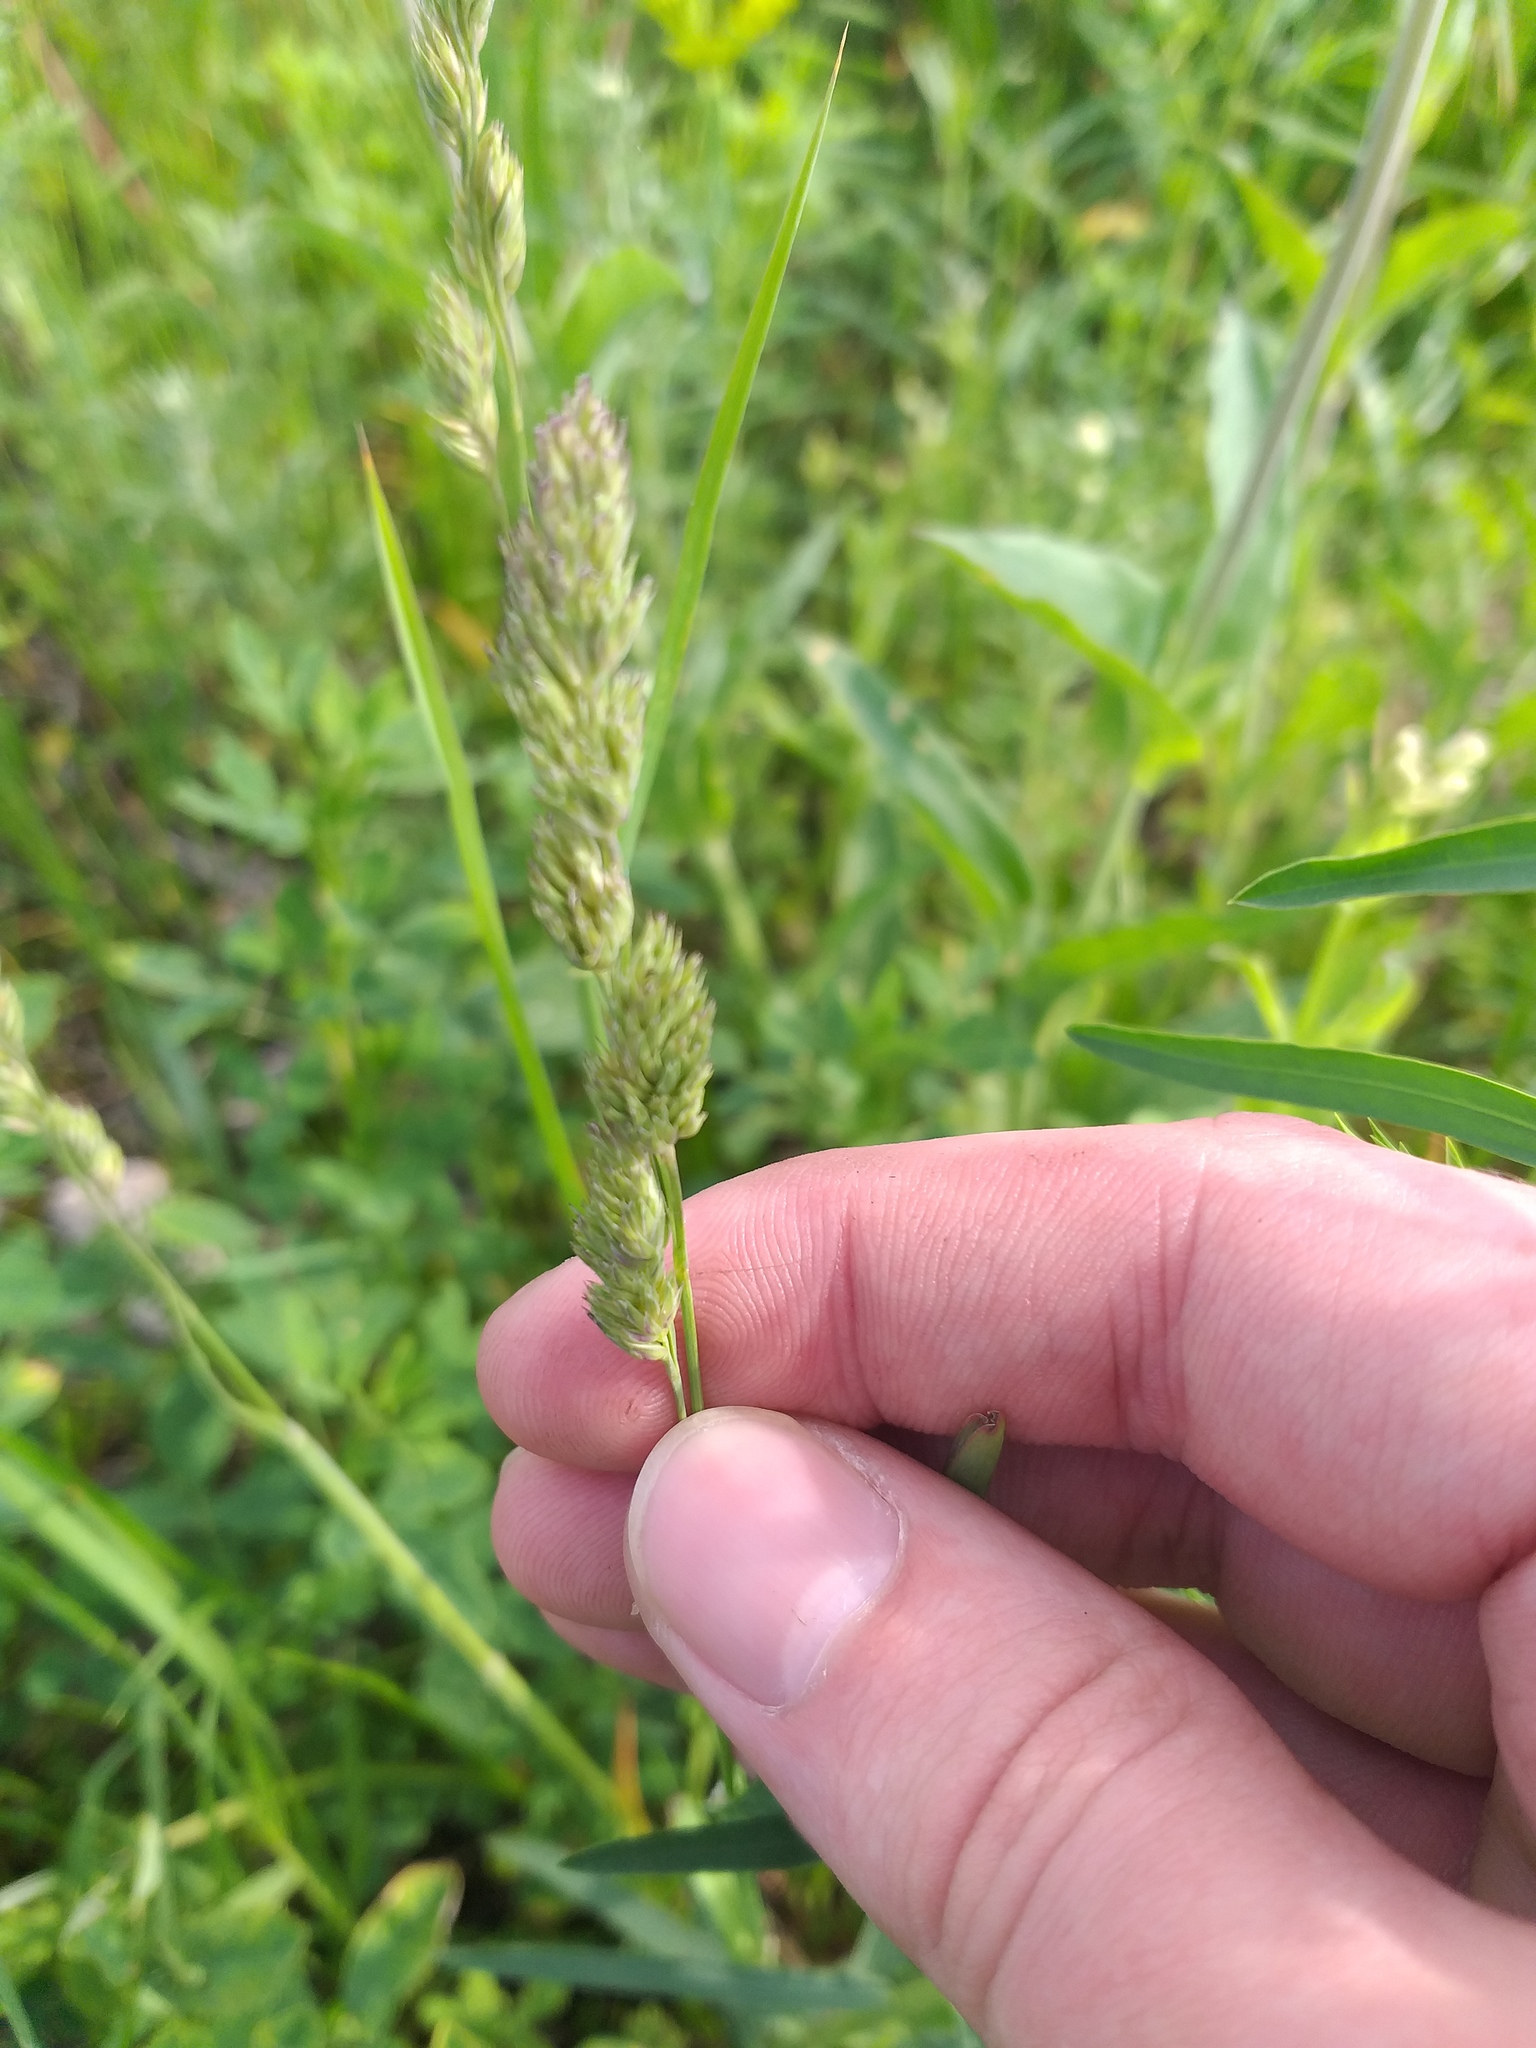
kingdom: Plantae
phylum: Tracheophyta
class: Liliopsida
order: Poales
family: Poaceae
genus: Dactylis
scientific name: Dactylis glomerata
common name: Orchardgrass
